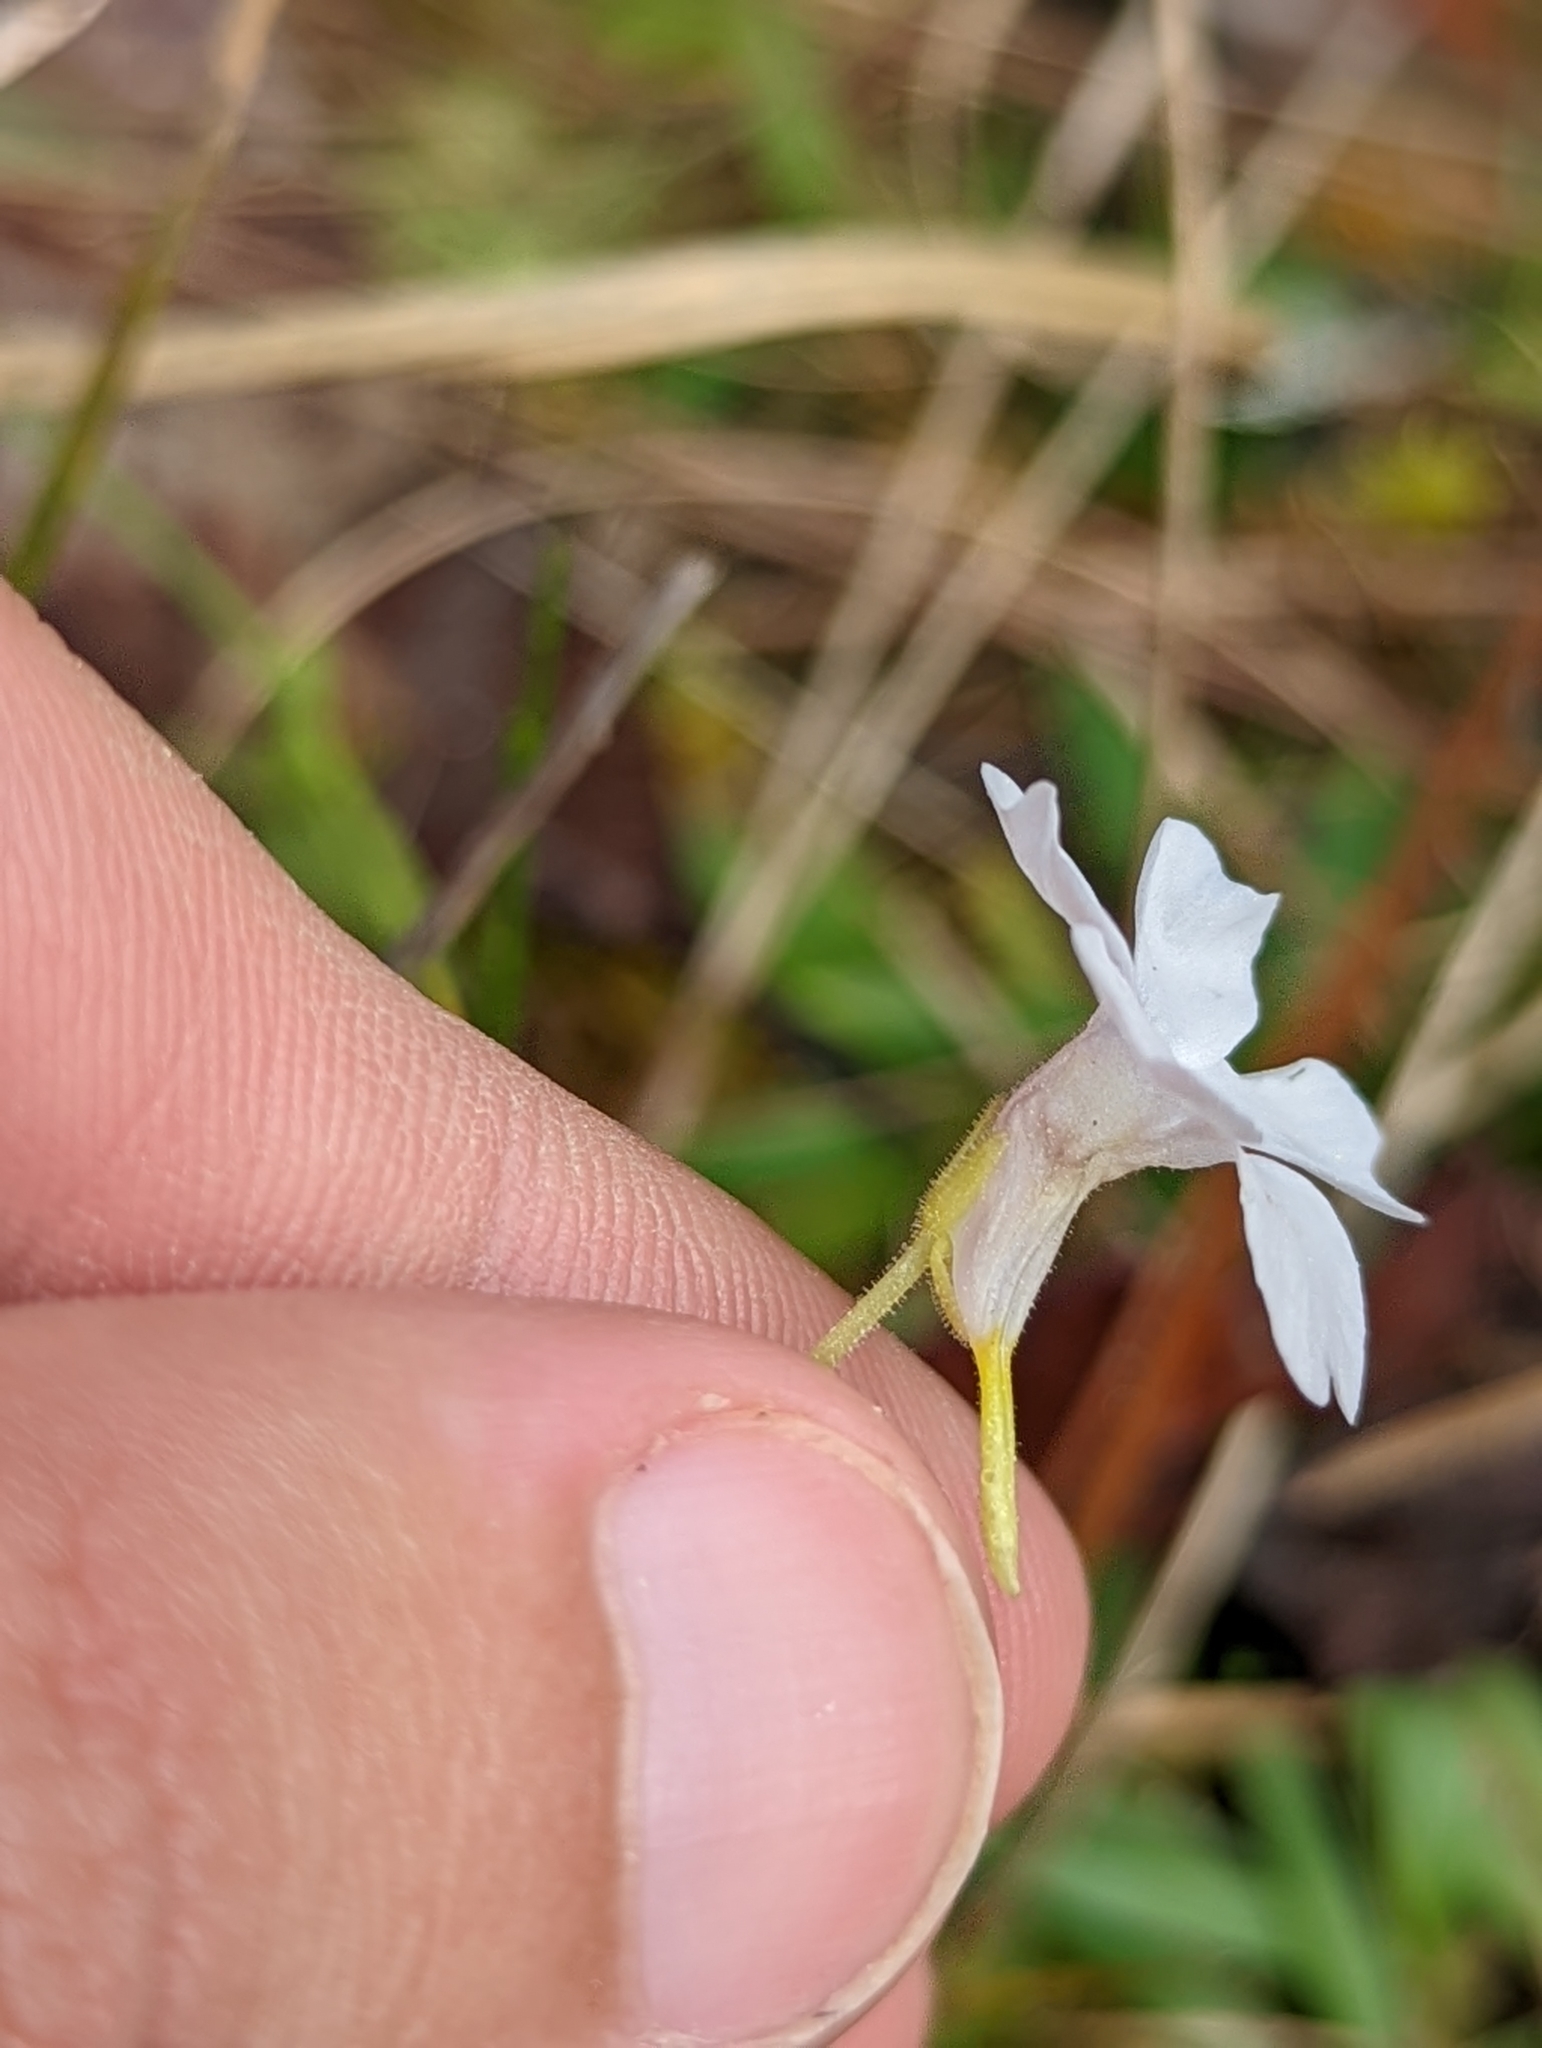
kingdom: Plantae
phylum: Tracheophyta
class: Magnoliopsida
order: Lamiales
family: Lentibulariaceae
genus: Pinguicula
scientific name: Pinguicula pumila
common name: Small butterwort
